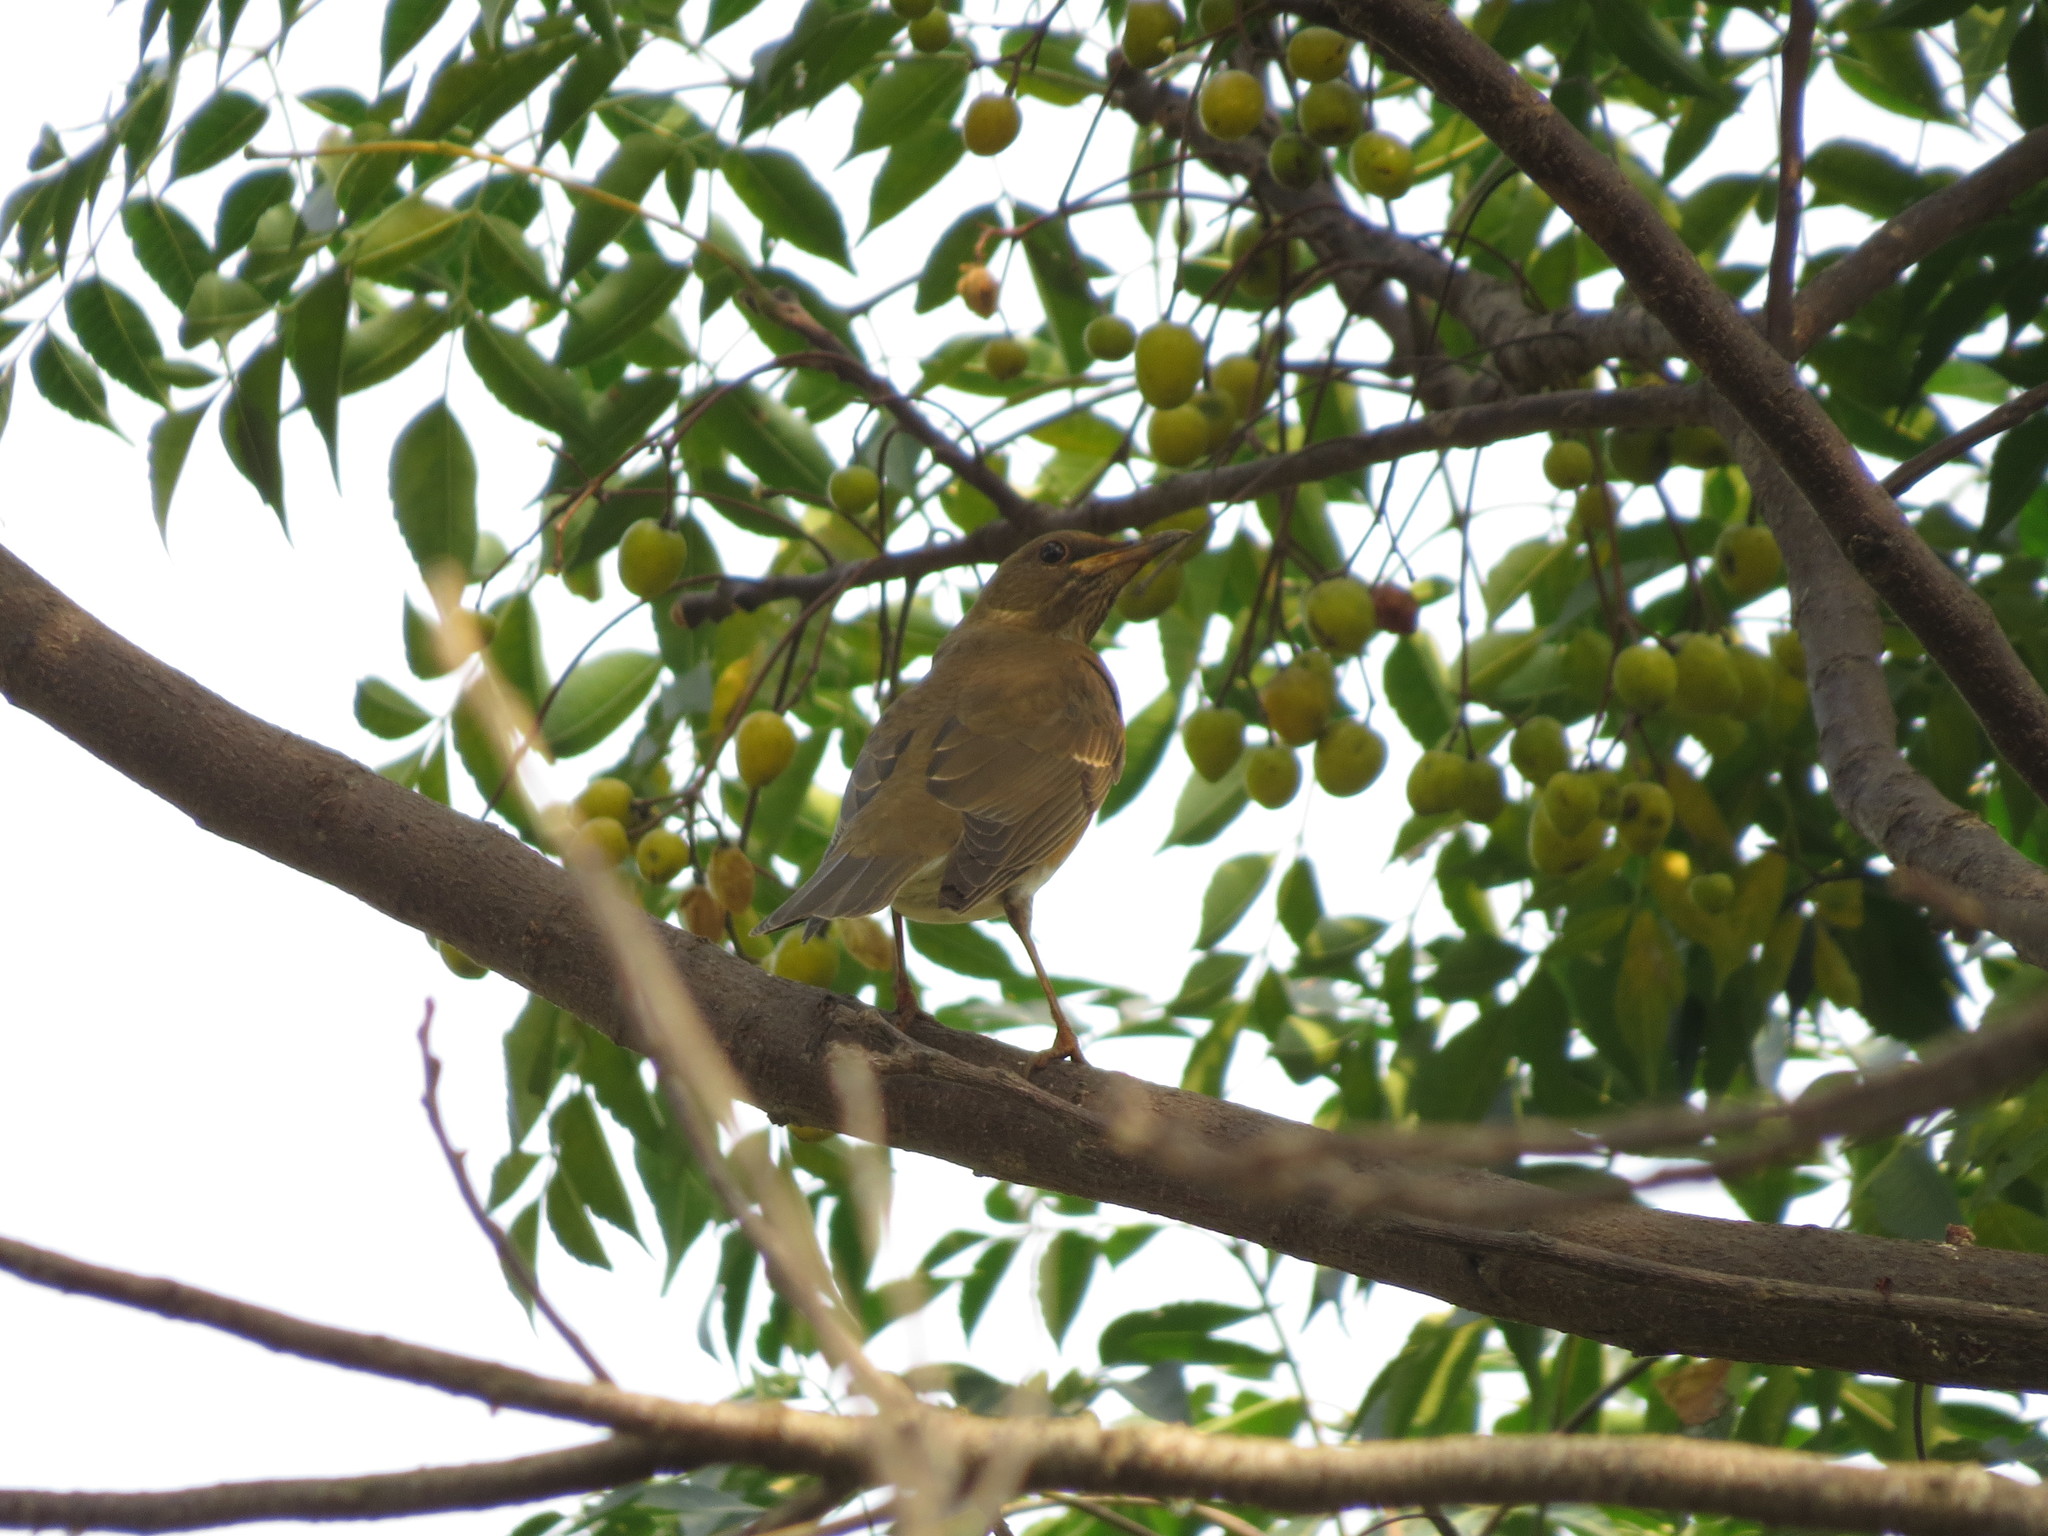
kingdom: Animalia
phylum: Chordata
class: Aves
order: Passeriformes
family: Turdidae
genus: Turdus
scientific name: Turdus chrysolaus
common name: Brown-headed thrush
